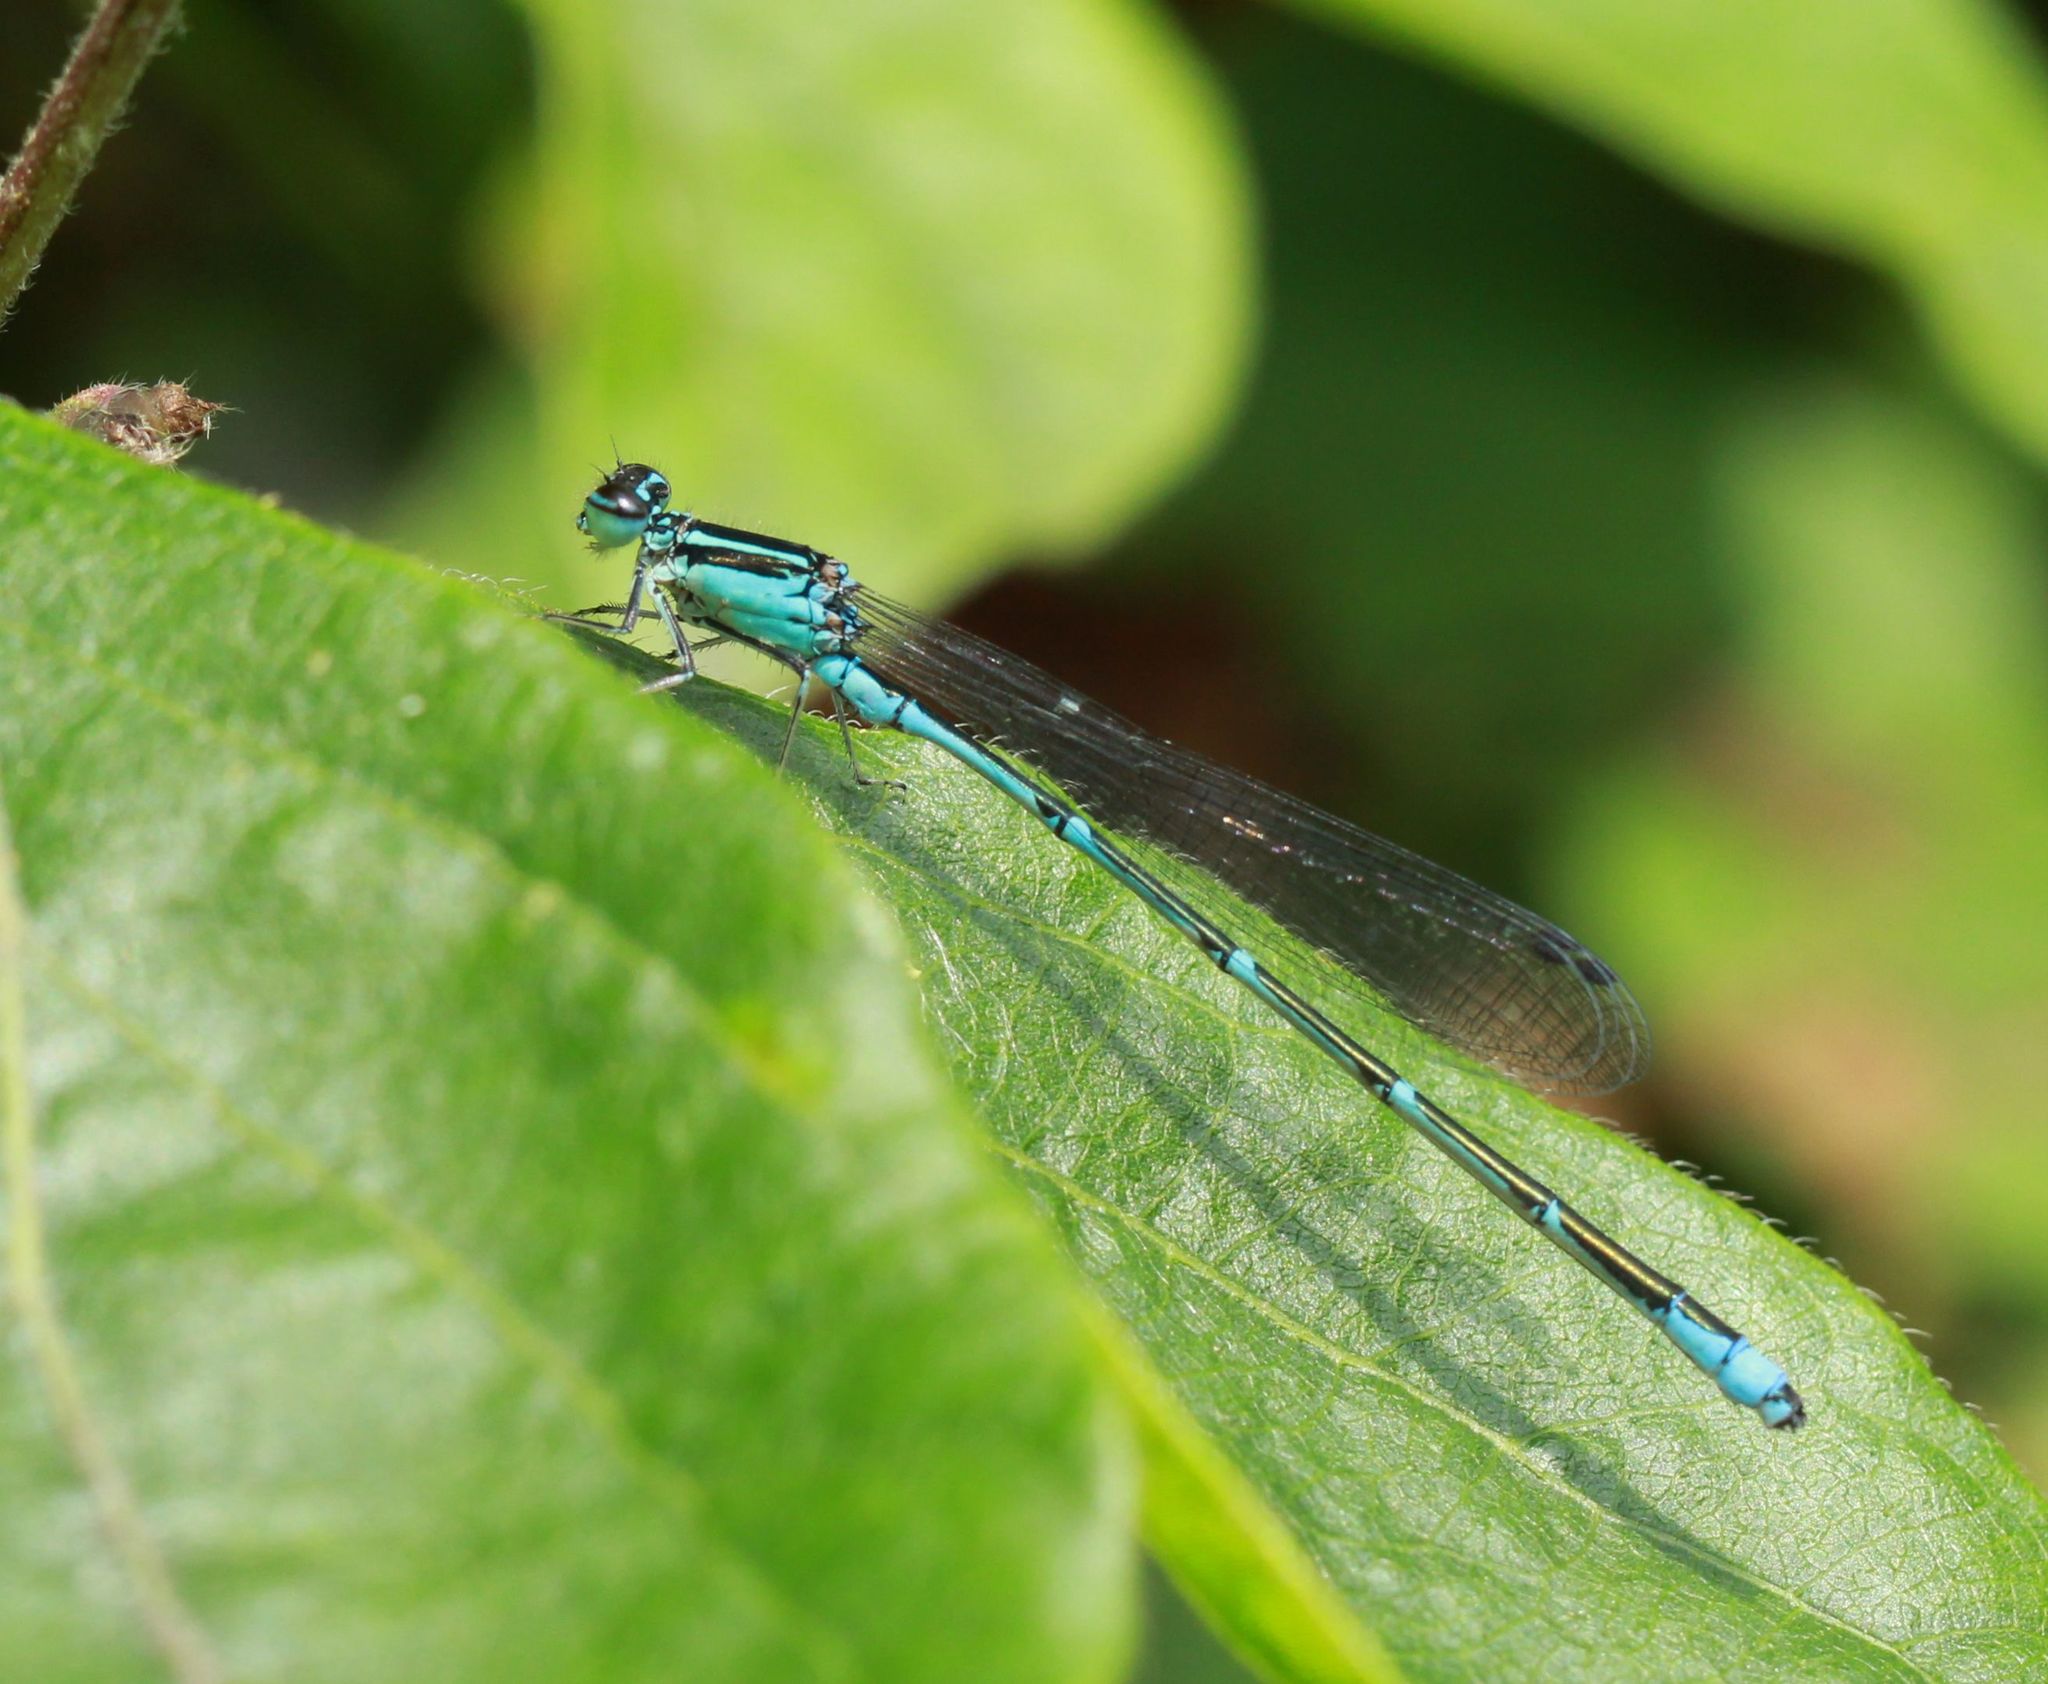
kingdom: Animalia
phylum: Arthropoda
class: Insecta
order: Odonata
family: Coenagrionidae
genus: Enallagma
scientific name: Enallagma exsulans
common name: Stream bluet
